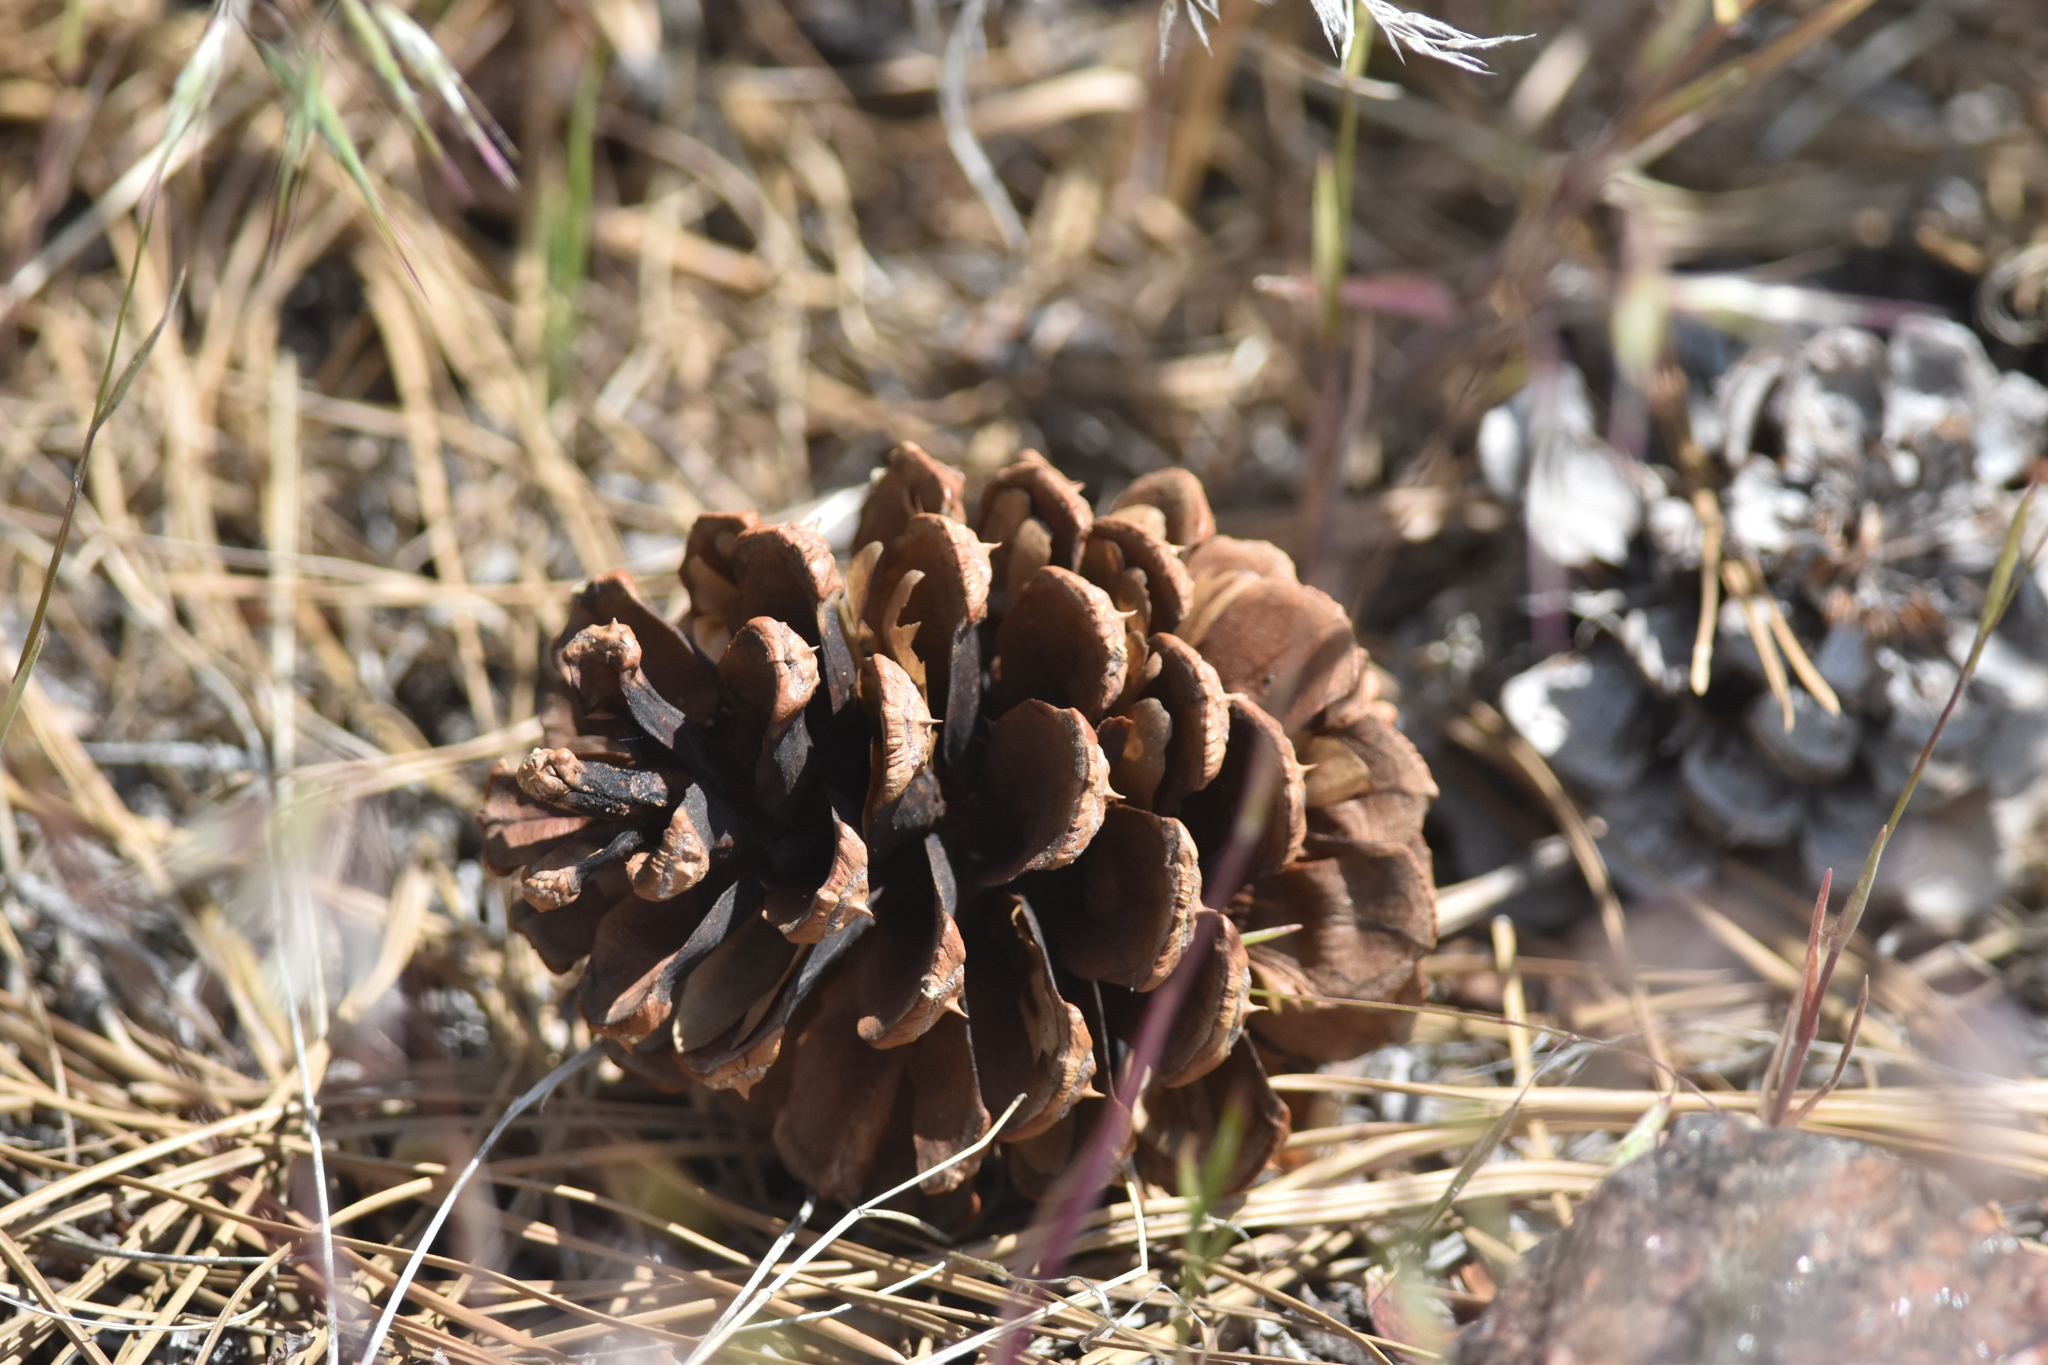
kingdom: Plantae
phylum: Tracheophyta
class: Pinopsida
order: Pinales
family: Pinaceae
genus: Pinus
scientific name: Pinus ponderosa
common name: Western yellow-pine
